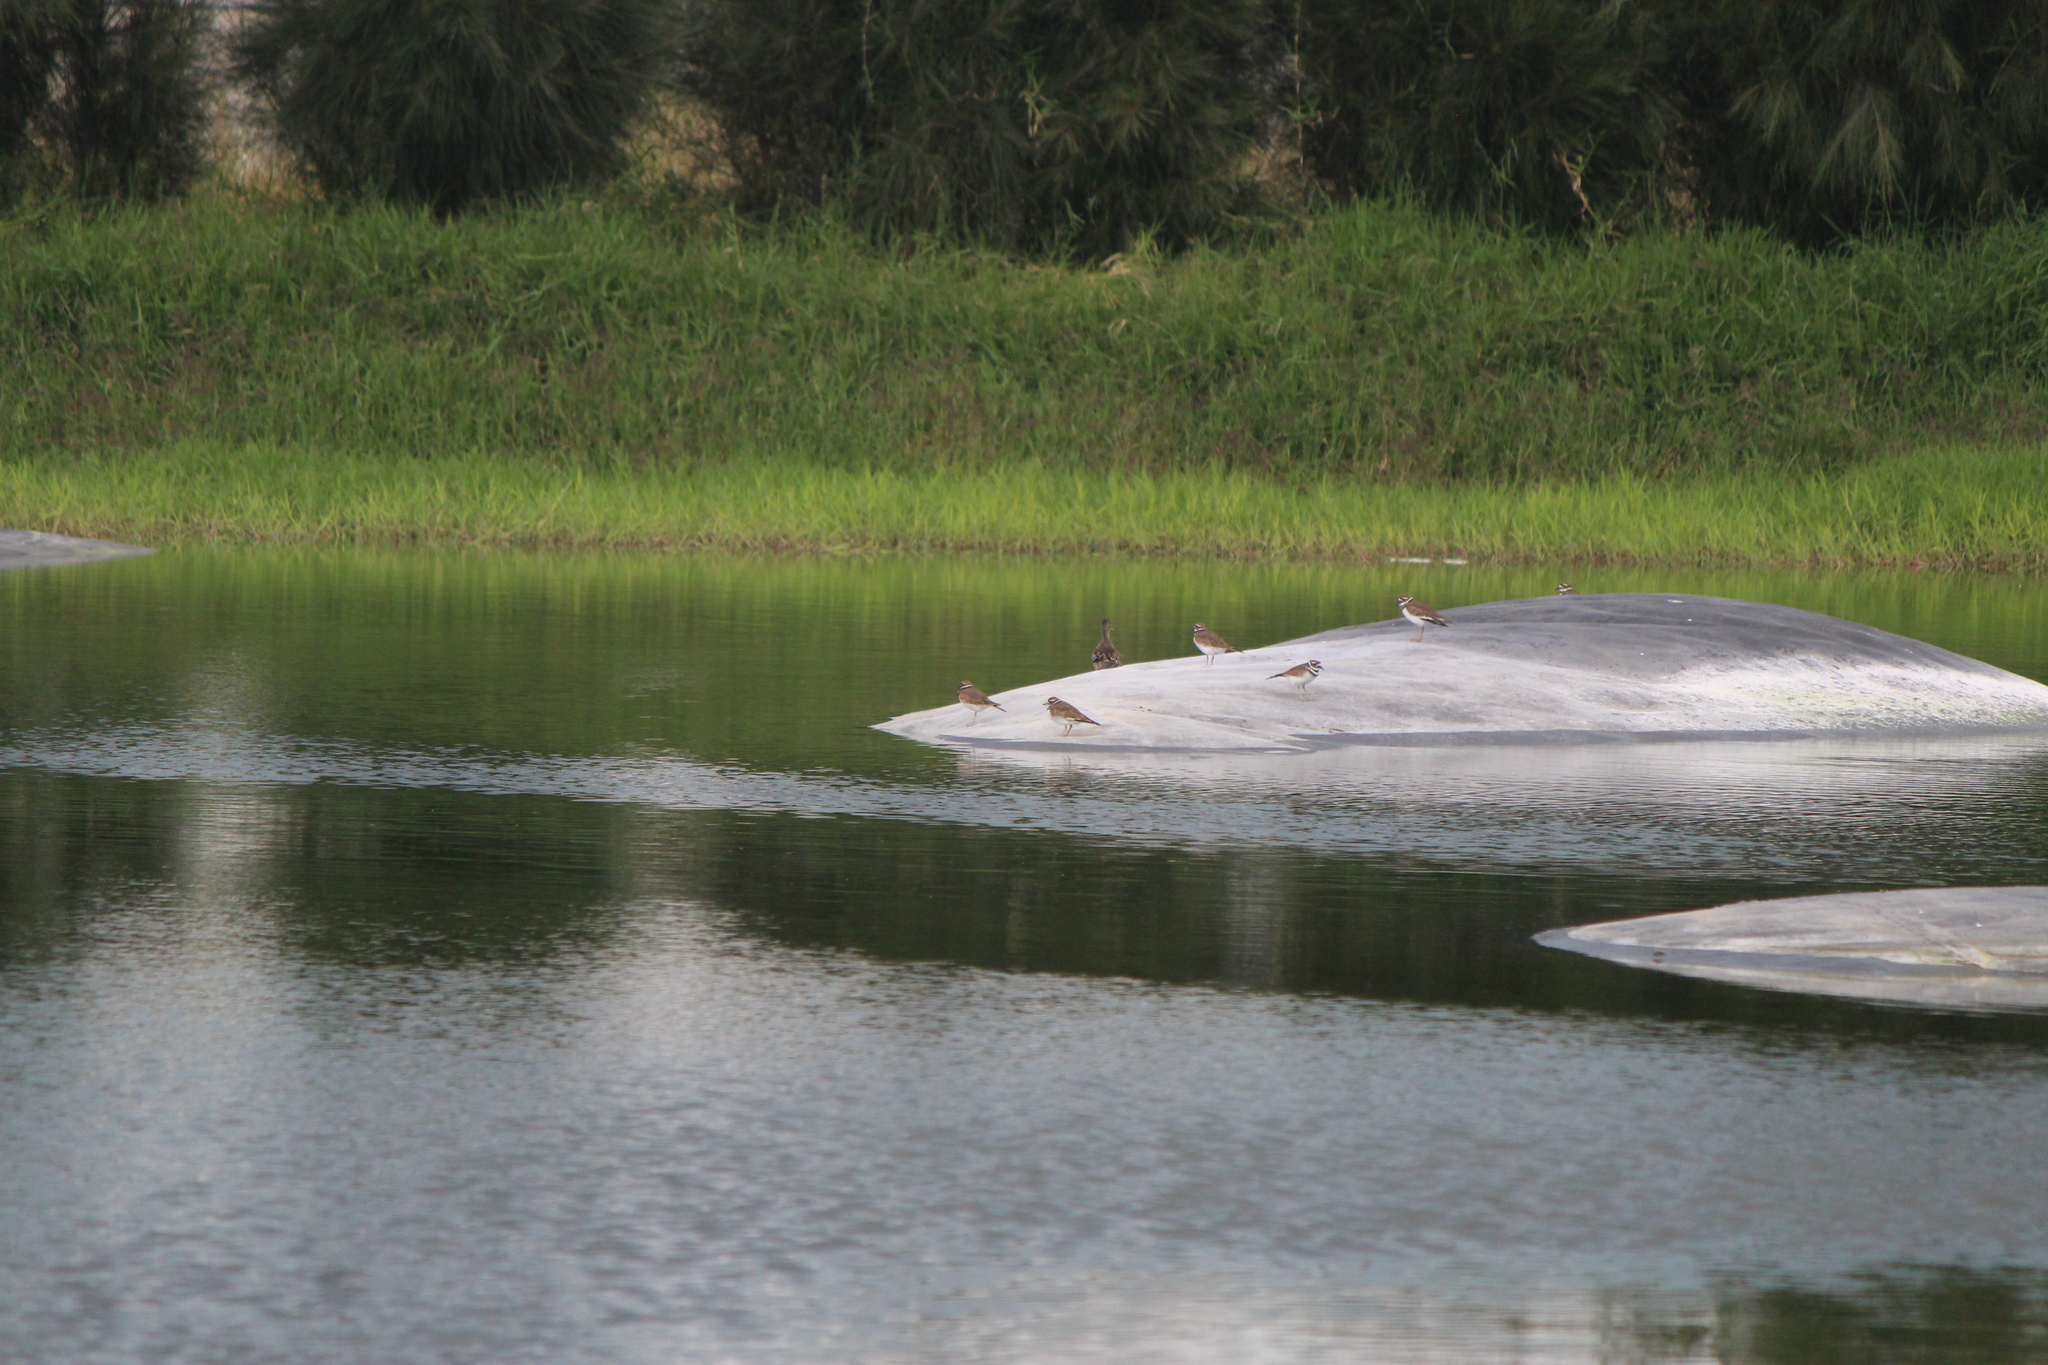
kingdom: Animalia
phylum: Chordata
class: Aves
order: Charadriiformes
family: Charadriidae
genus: Charadrius
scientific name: Charadrius vociferus
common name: Killdeer
